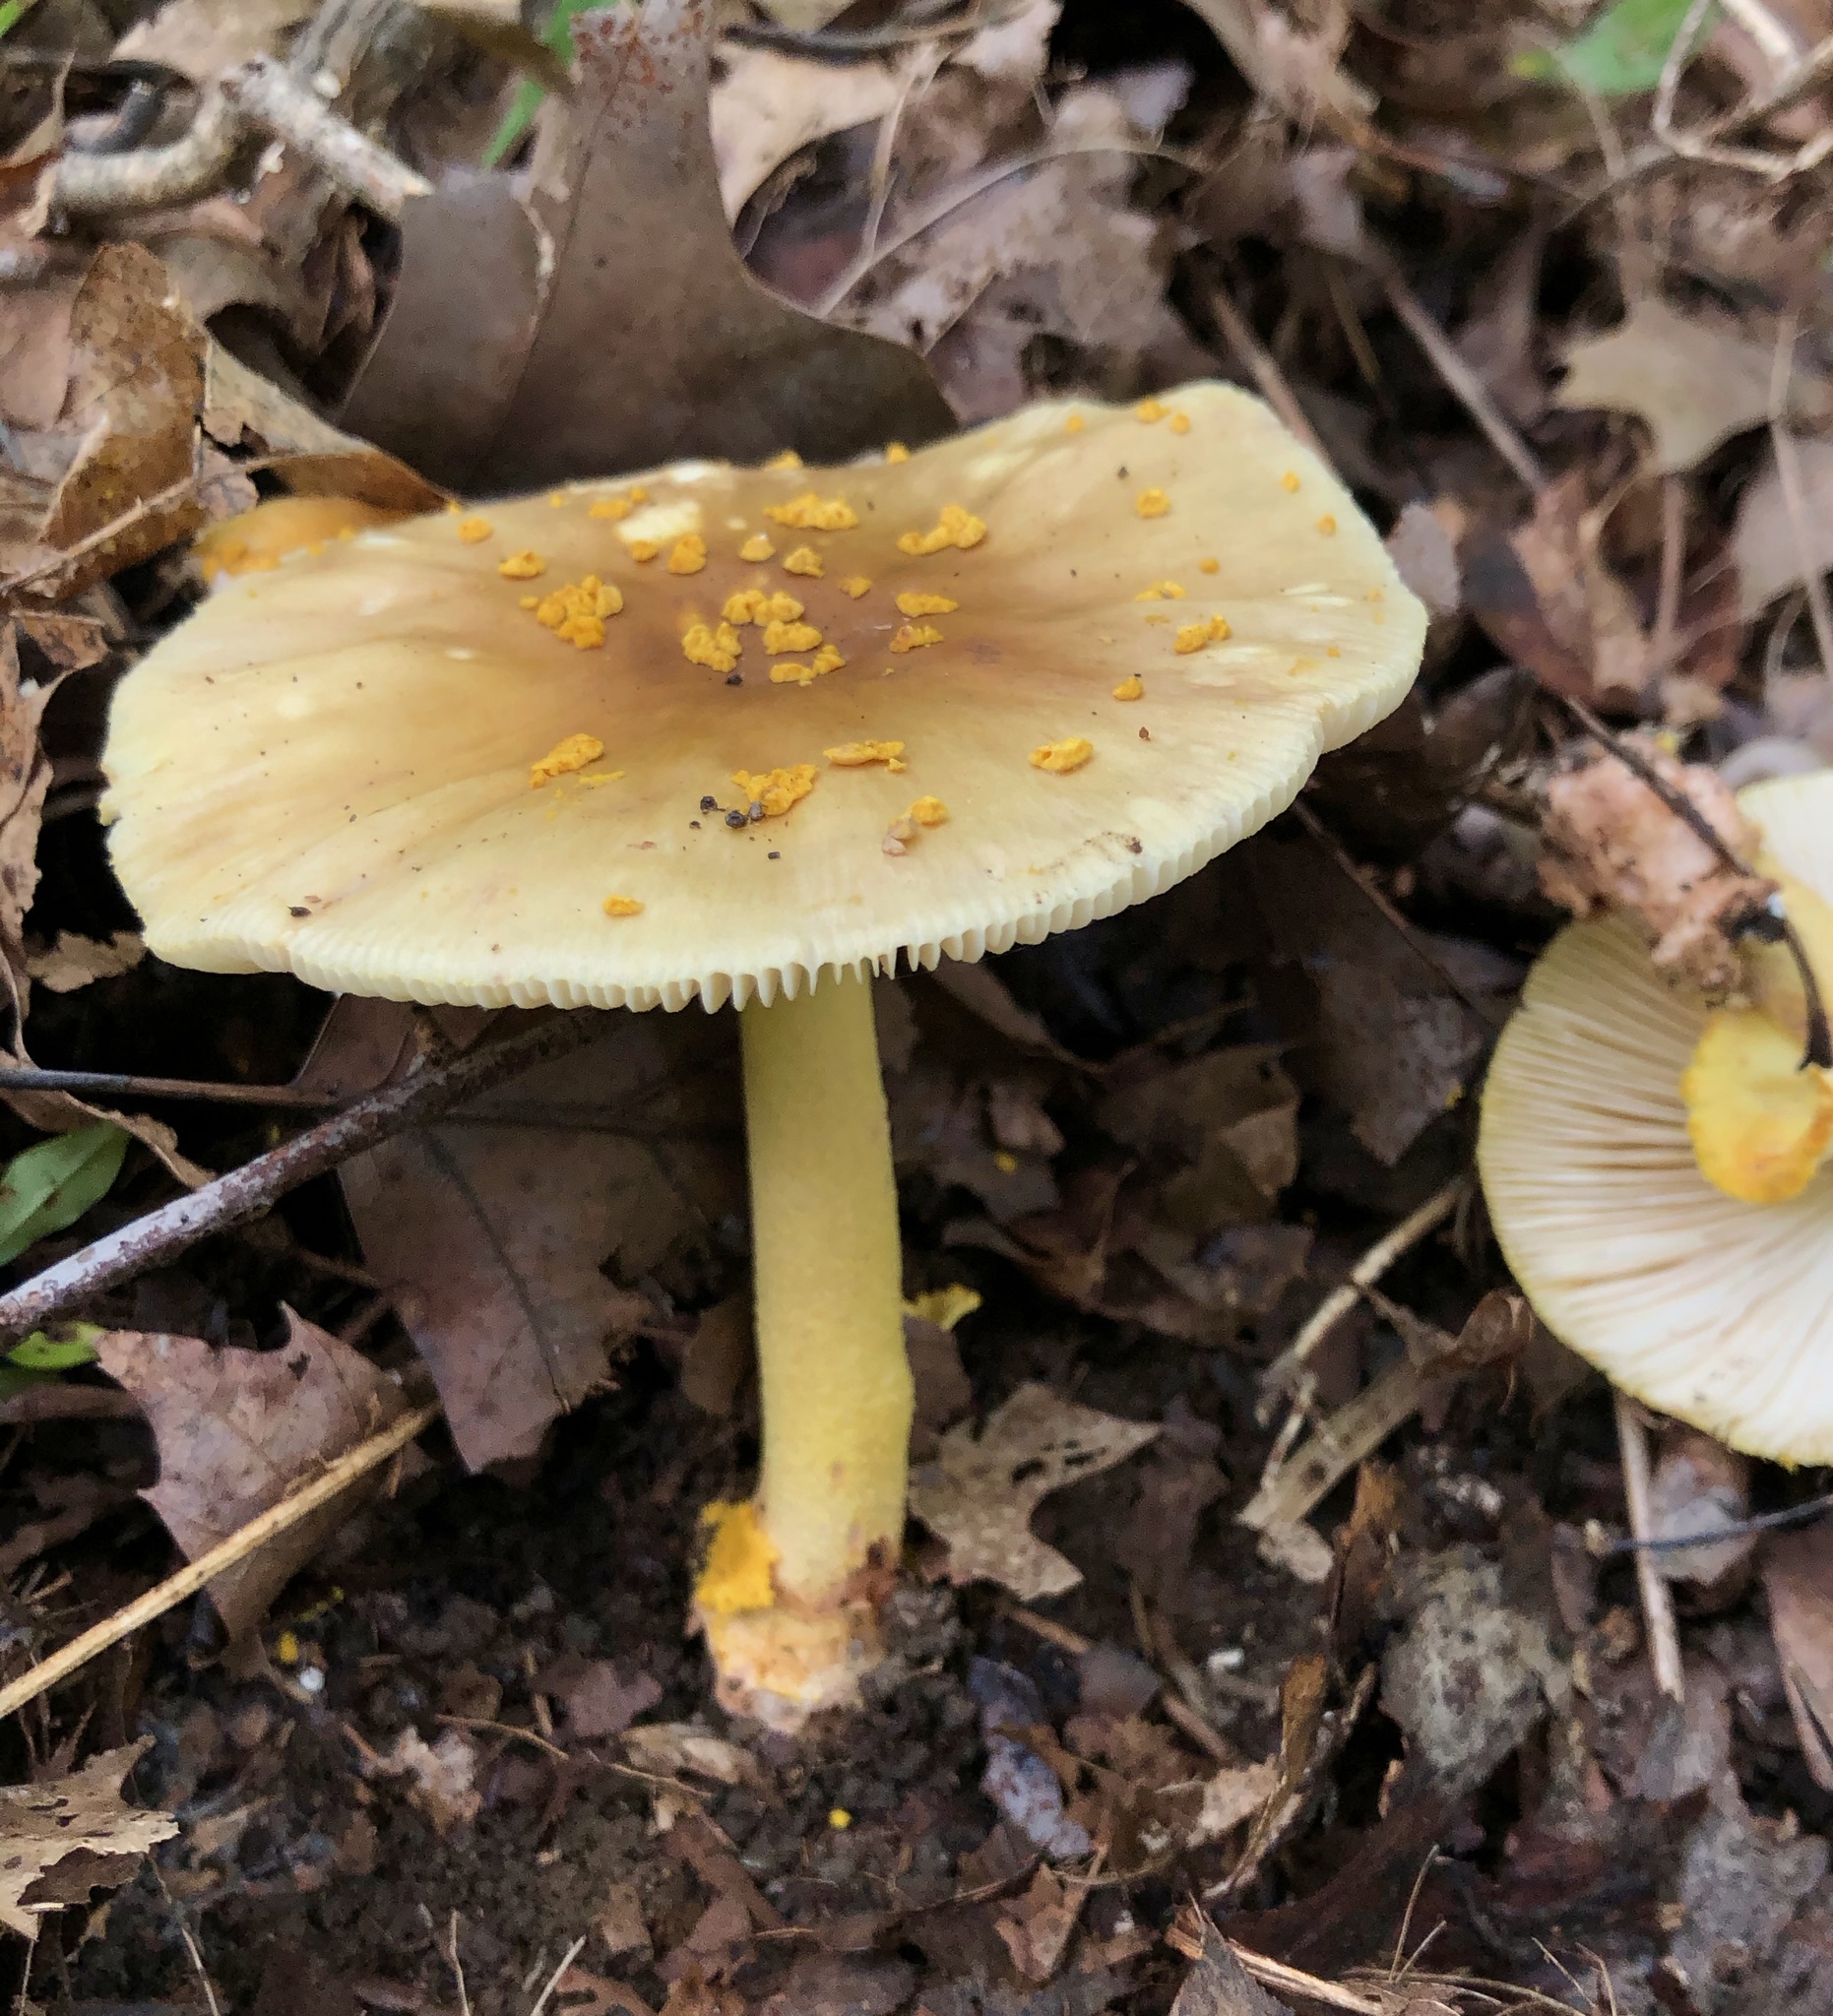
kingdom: Fungi
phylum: Basidiomycota
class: Agaricomycetes
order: Agaricales
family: Amanitaceae
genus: Amanita
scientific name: Amanita flavorubens
